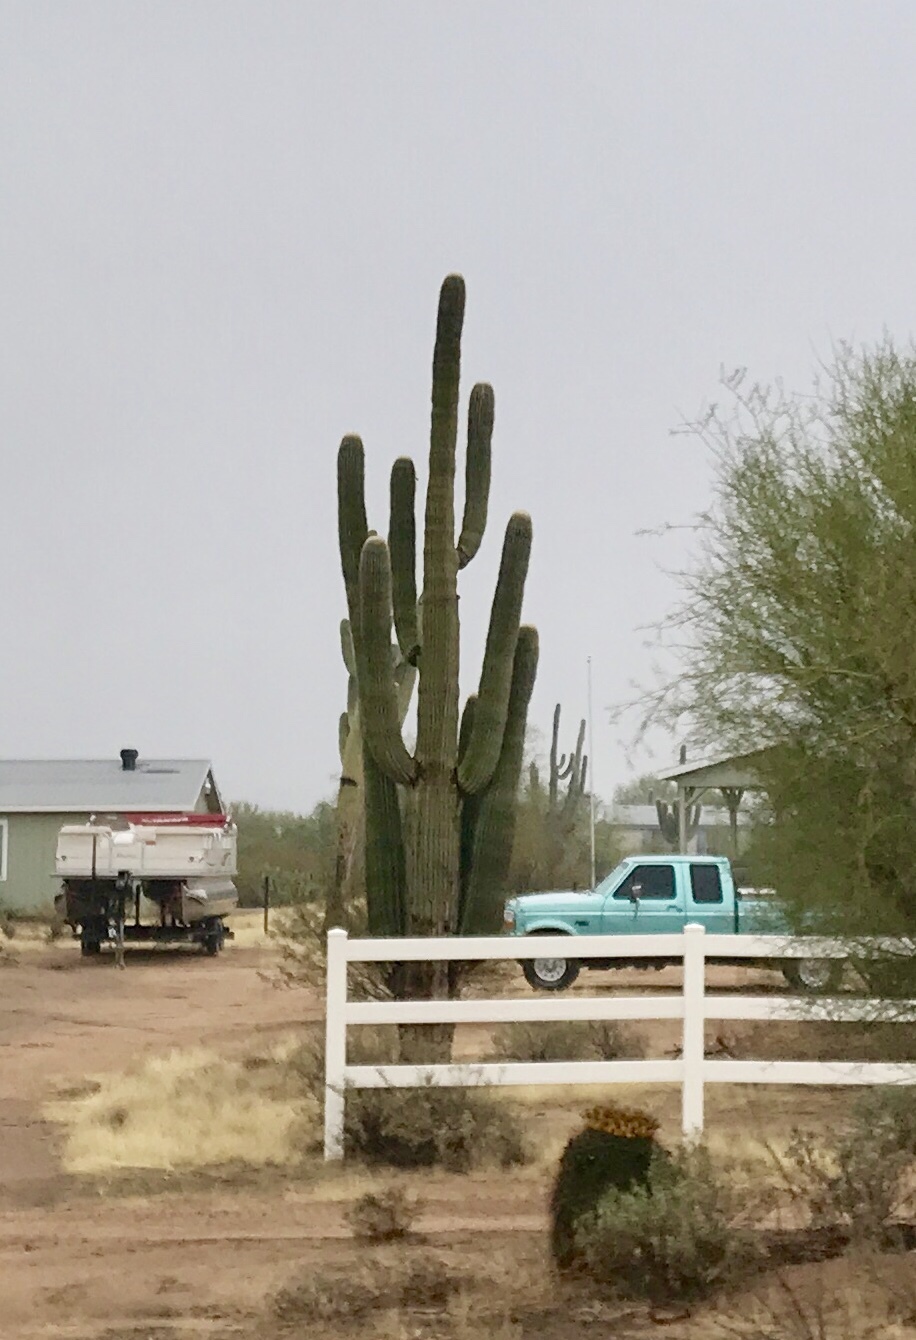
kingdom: Plantae
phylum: Tracheophyta
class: Magnoliopsida
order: Caryophyllales
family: Cactaceae
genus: Carnegiea
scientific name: Carnegiea gigantea
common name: Saguaro
